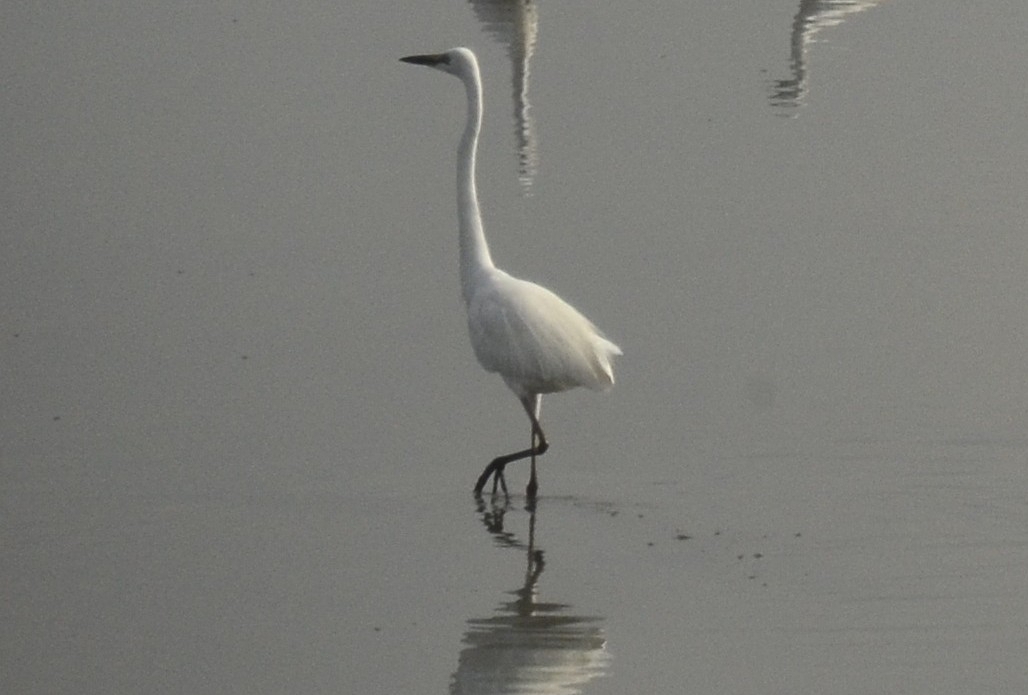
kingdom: Animalia
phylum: Chordata
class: Aves
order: Pelecaniformes
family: Ardeidae
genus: Ardea
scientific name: Ardea alba
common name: Great egret
